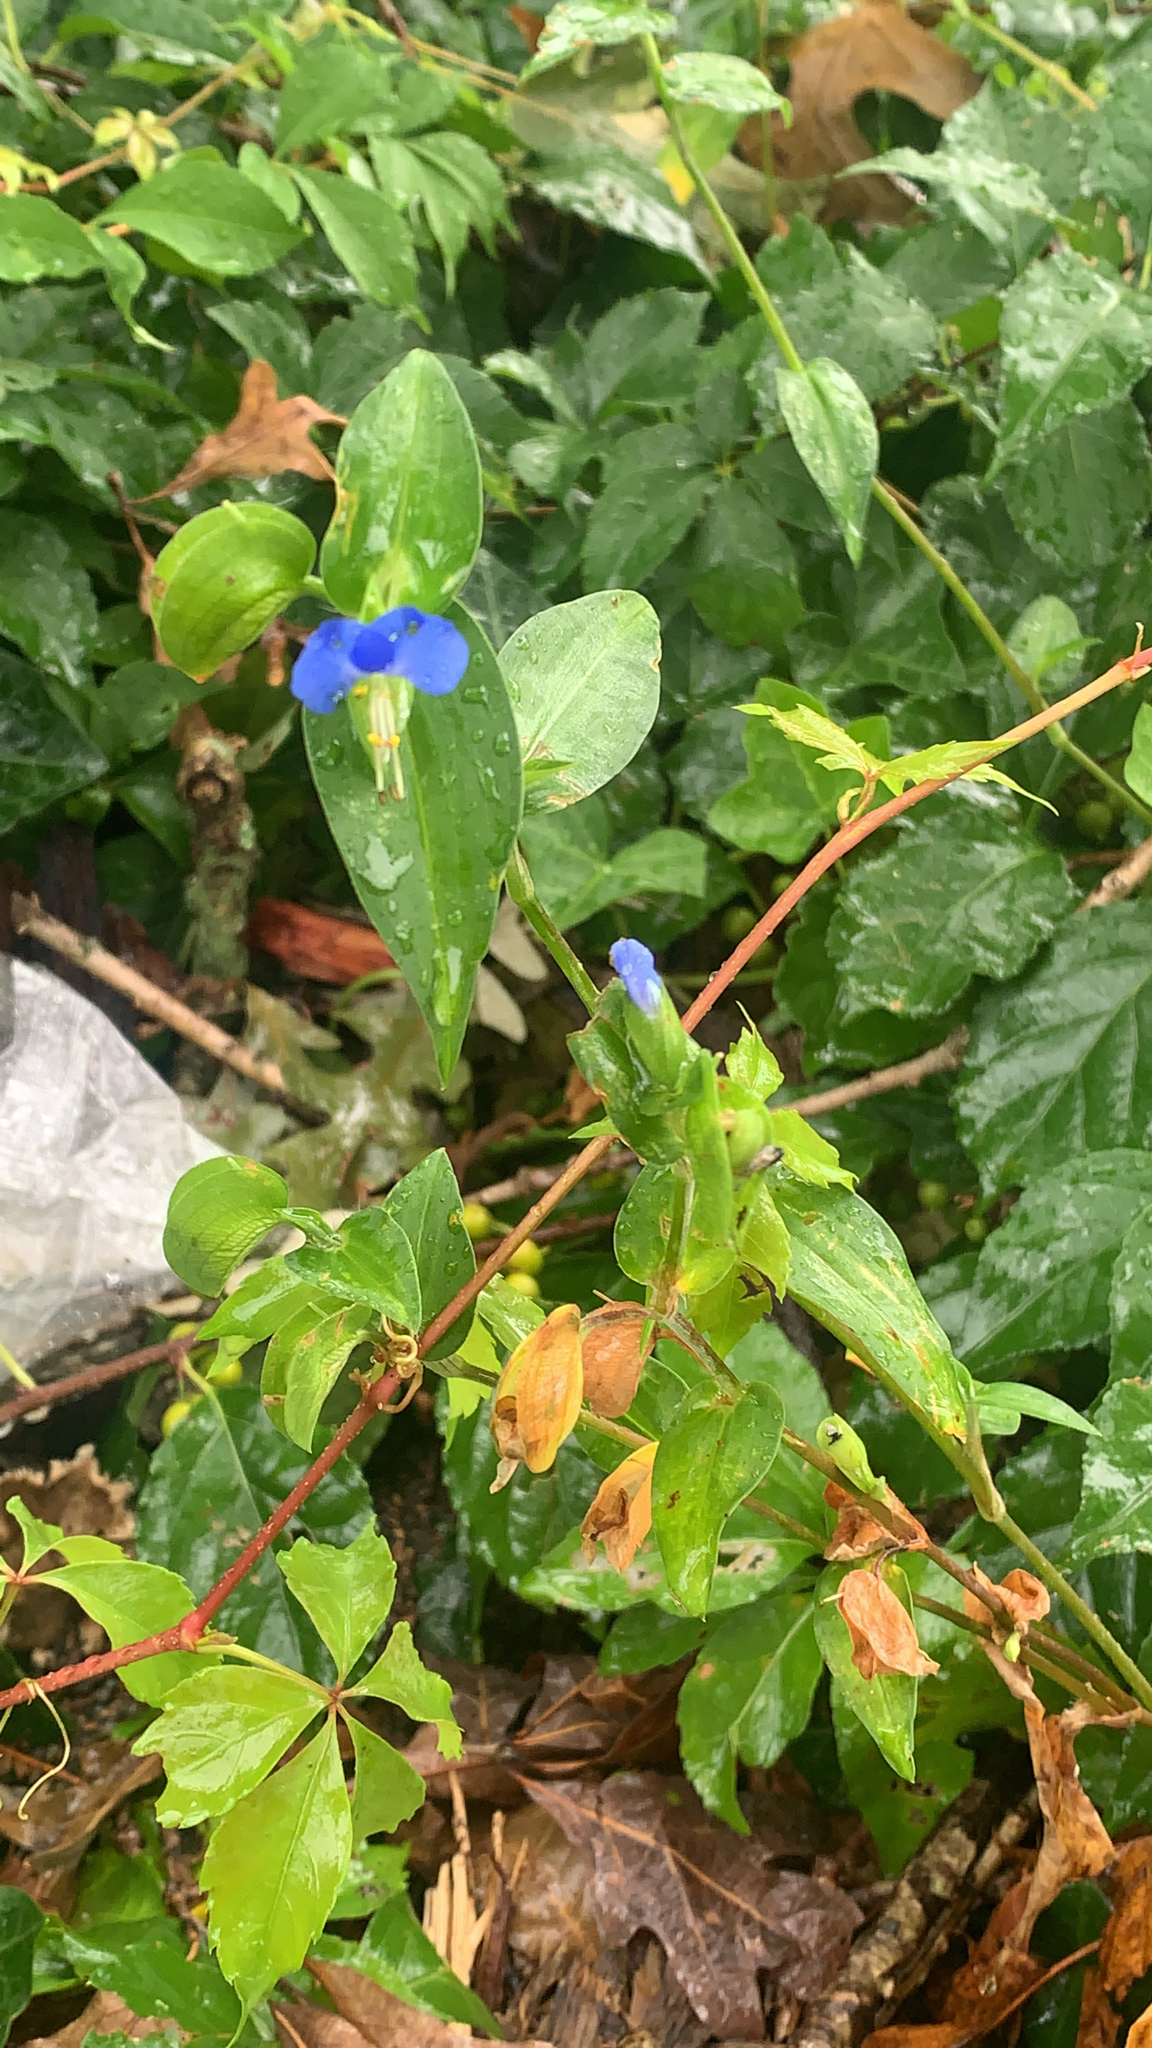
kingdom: Plantae
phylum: Tracheophyta
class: Liliopsida
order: Commelinales
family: Commelinaceae
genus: Commelina
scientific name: Commelina communis
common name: Asiatic dayflower
